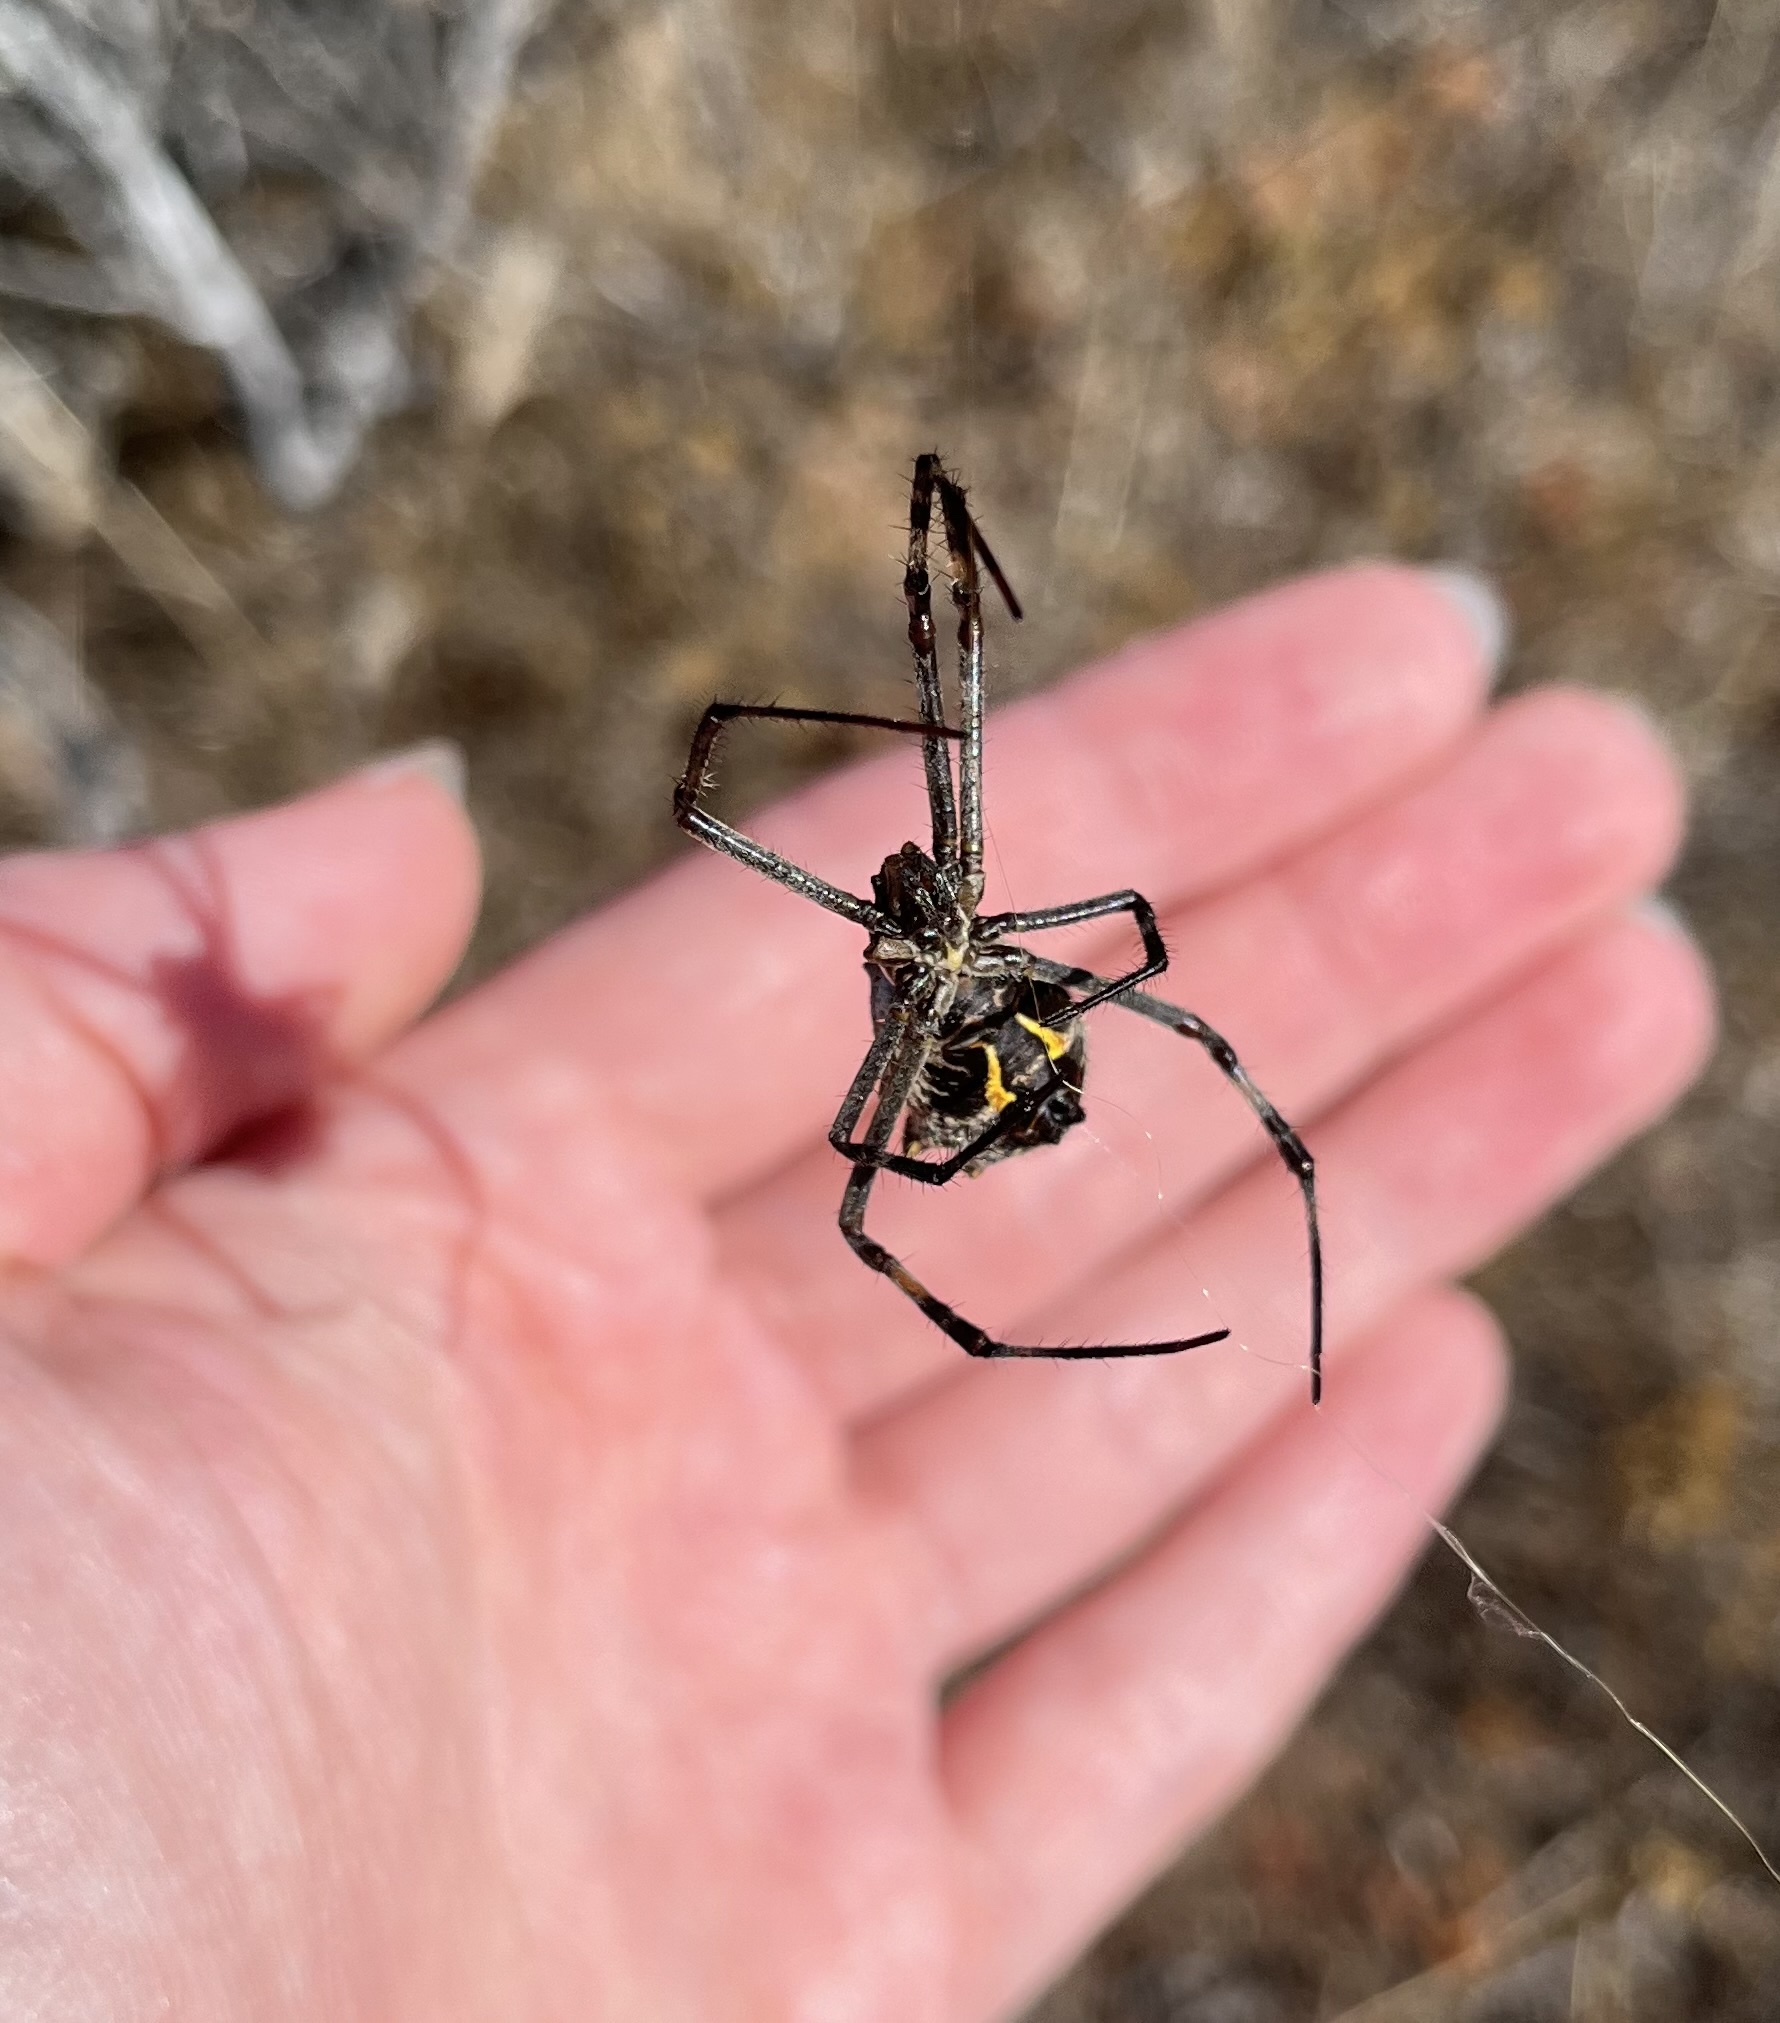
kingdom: Animalia
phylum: Arthropoda
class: Arachnida
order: Araneae
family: Araneidae
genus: Argiope
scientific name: Argiope argentata
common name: Orb weavers
